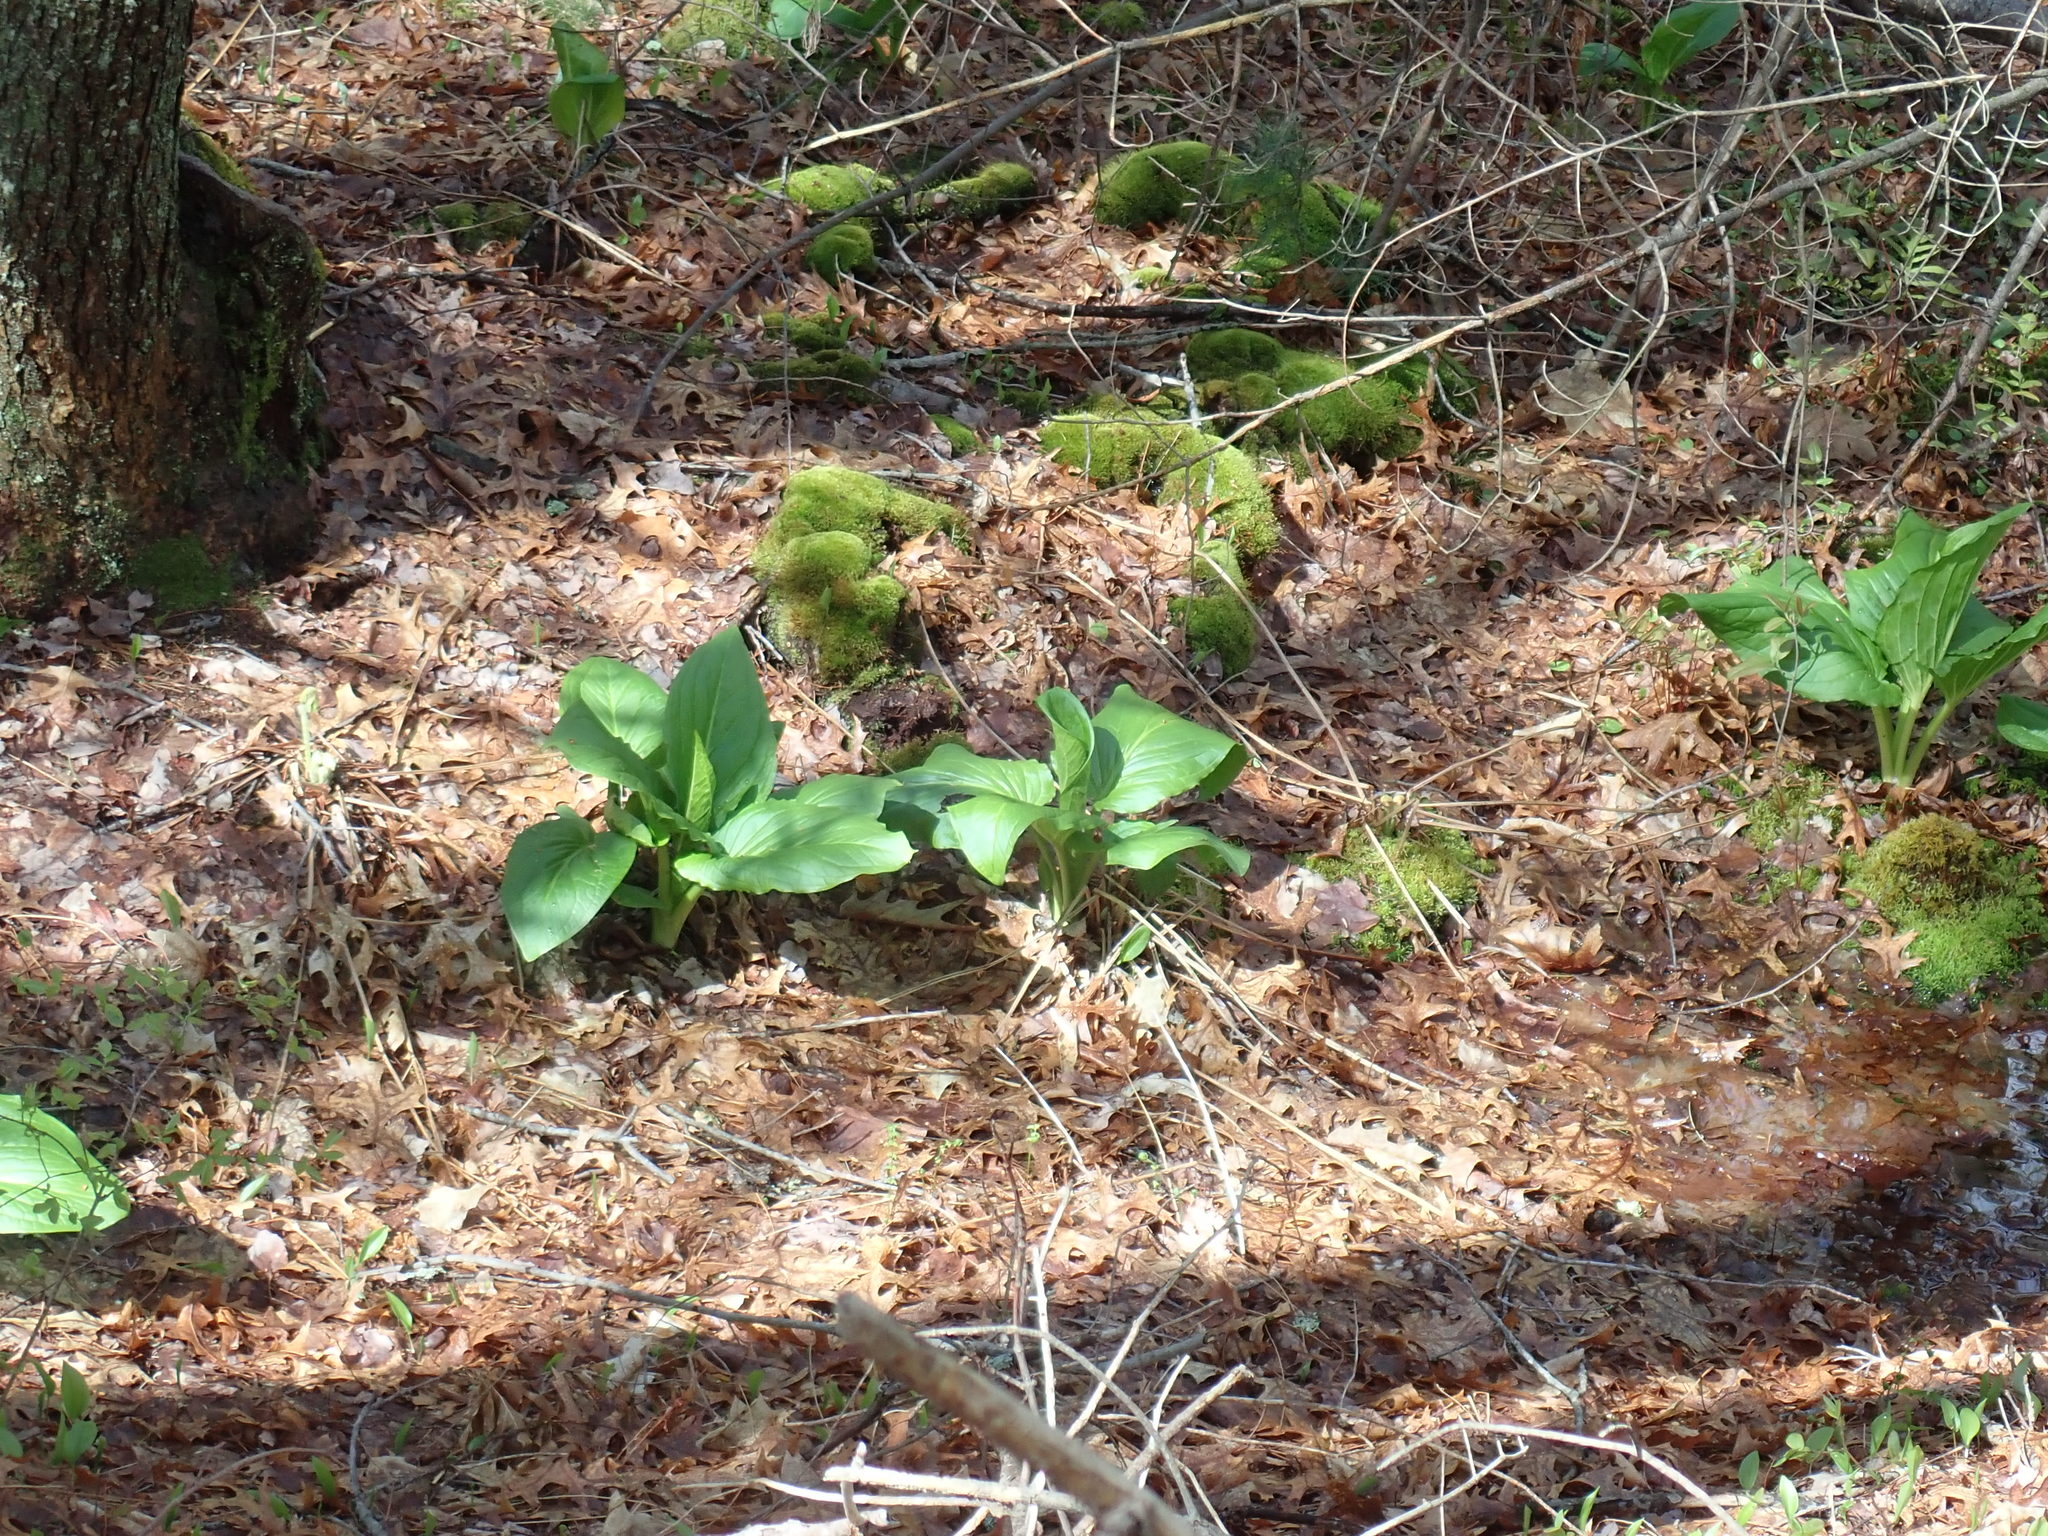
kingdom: Plantae
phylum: Tracheophyta
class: Liliopsida
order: Alismatales
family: Araceae
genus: Symplocarpus
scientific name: Symplocarpus foetidus
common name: Eastern skunk cabbage
